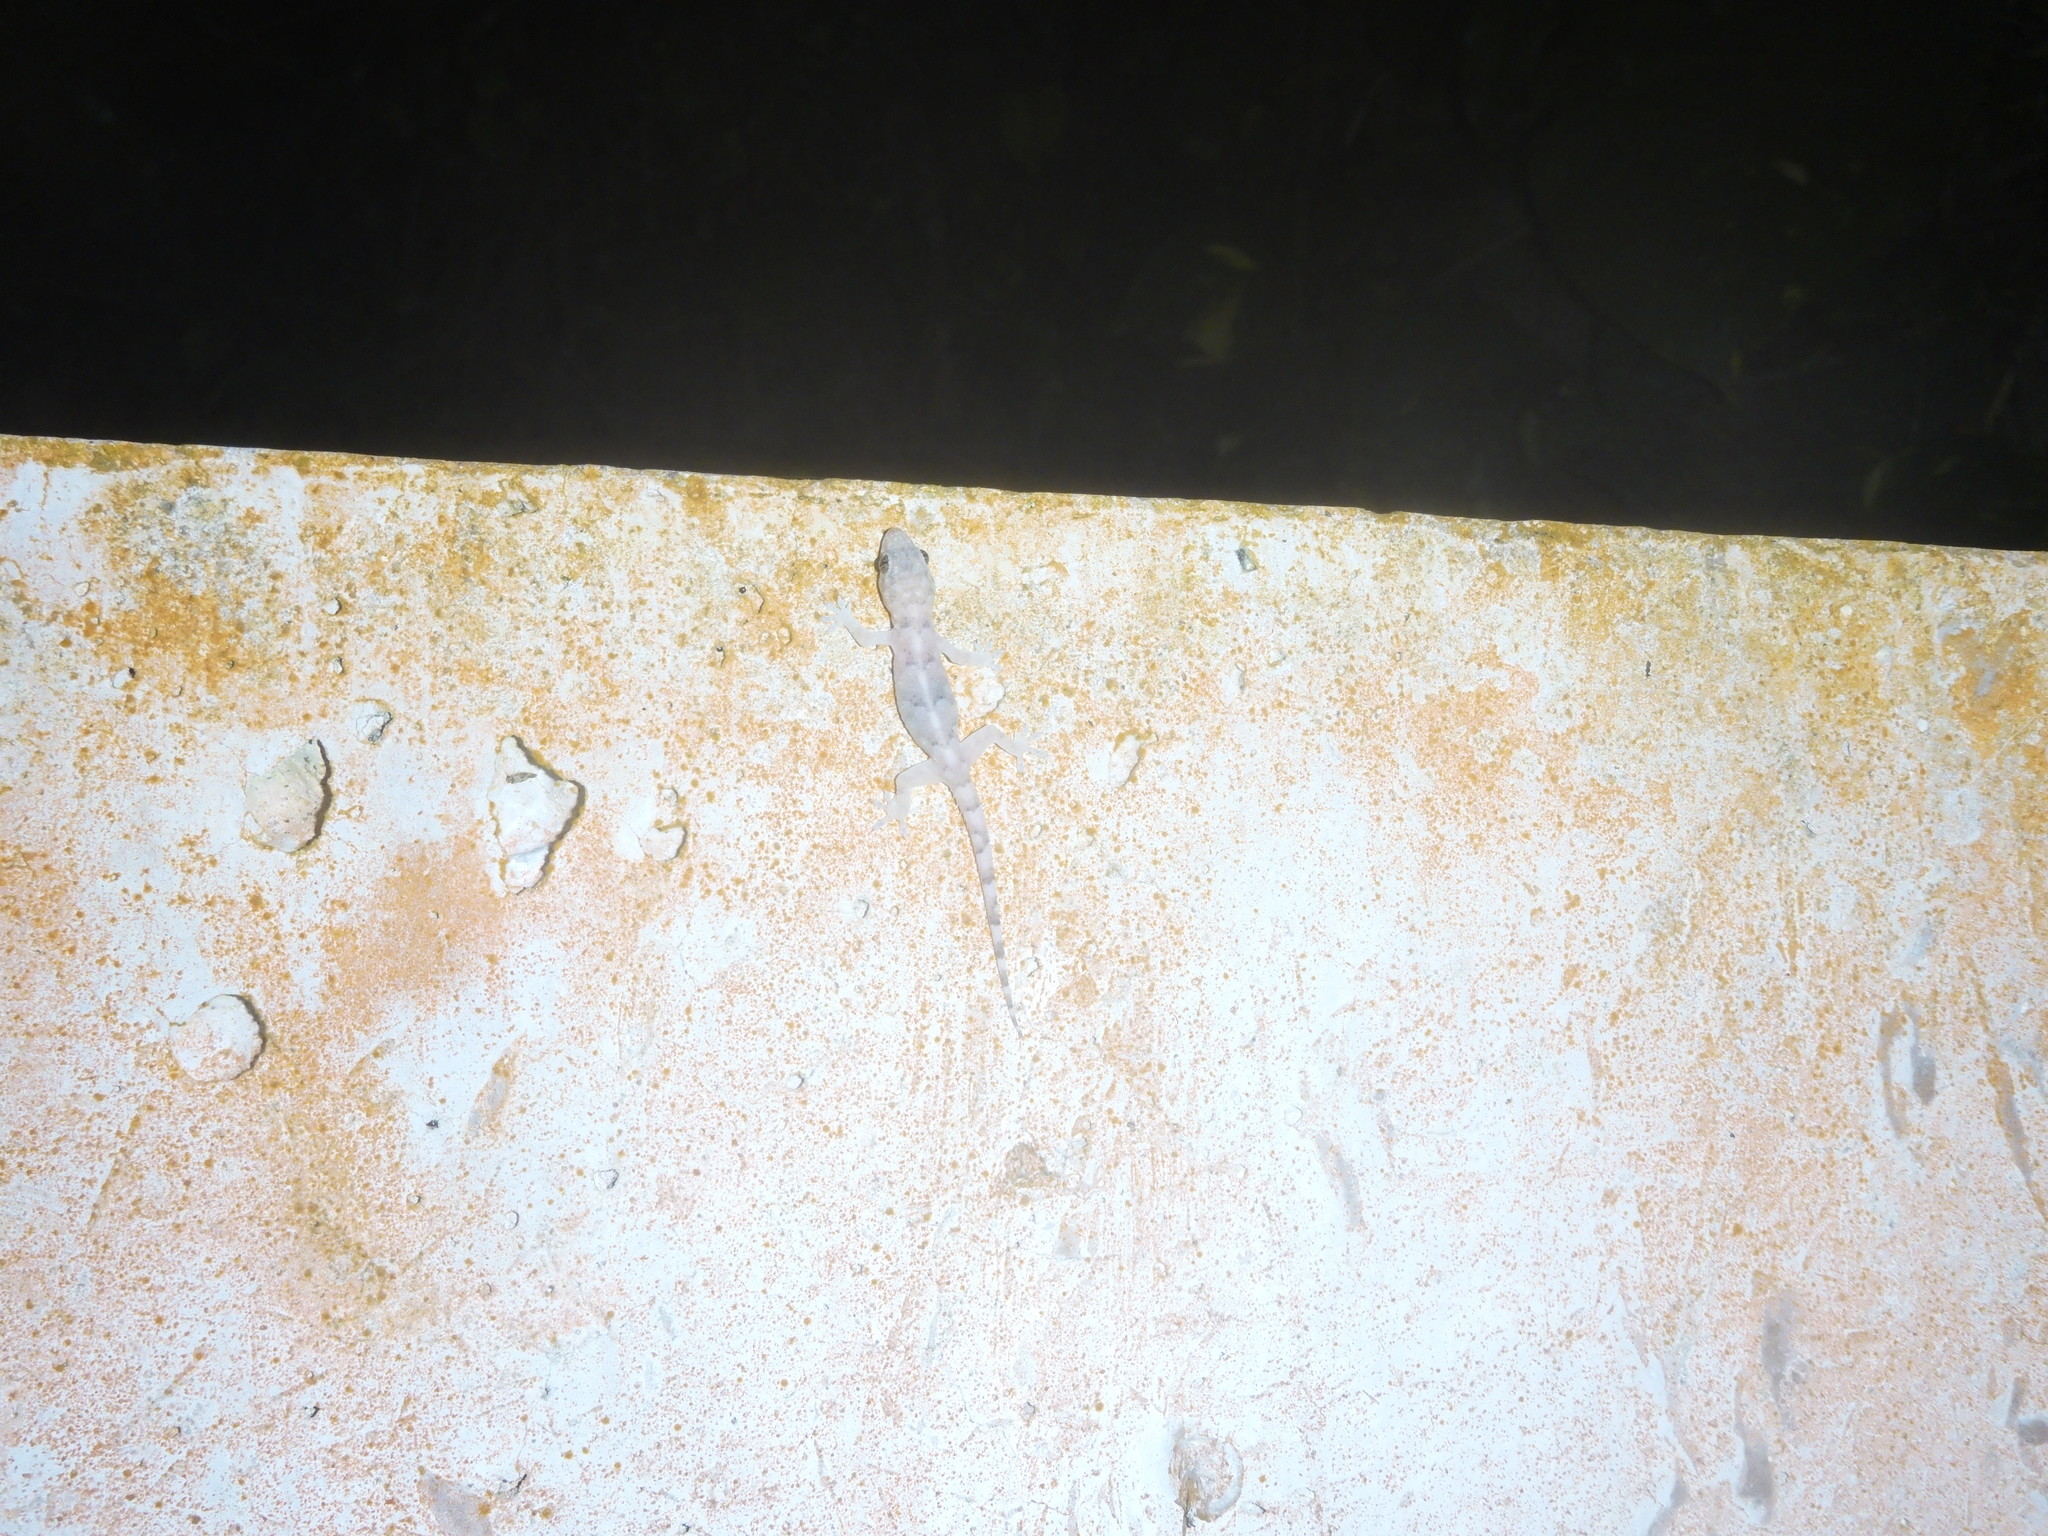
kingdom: Animalia
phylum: Chordata
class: Squamata
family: Gekkonidae
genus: Hemidactylus
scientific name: Hemidactylus mabouia
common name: House gecko
